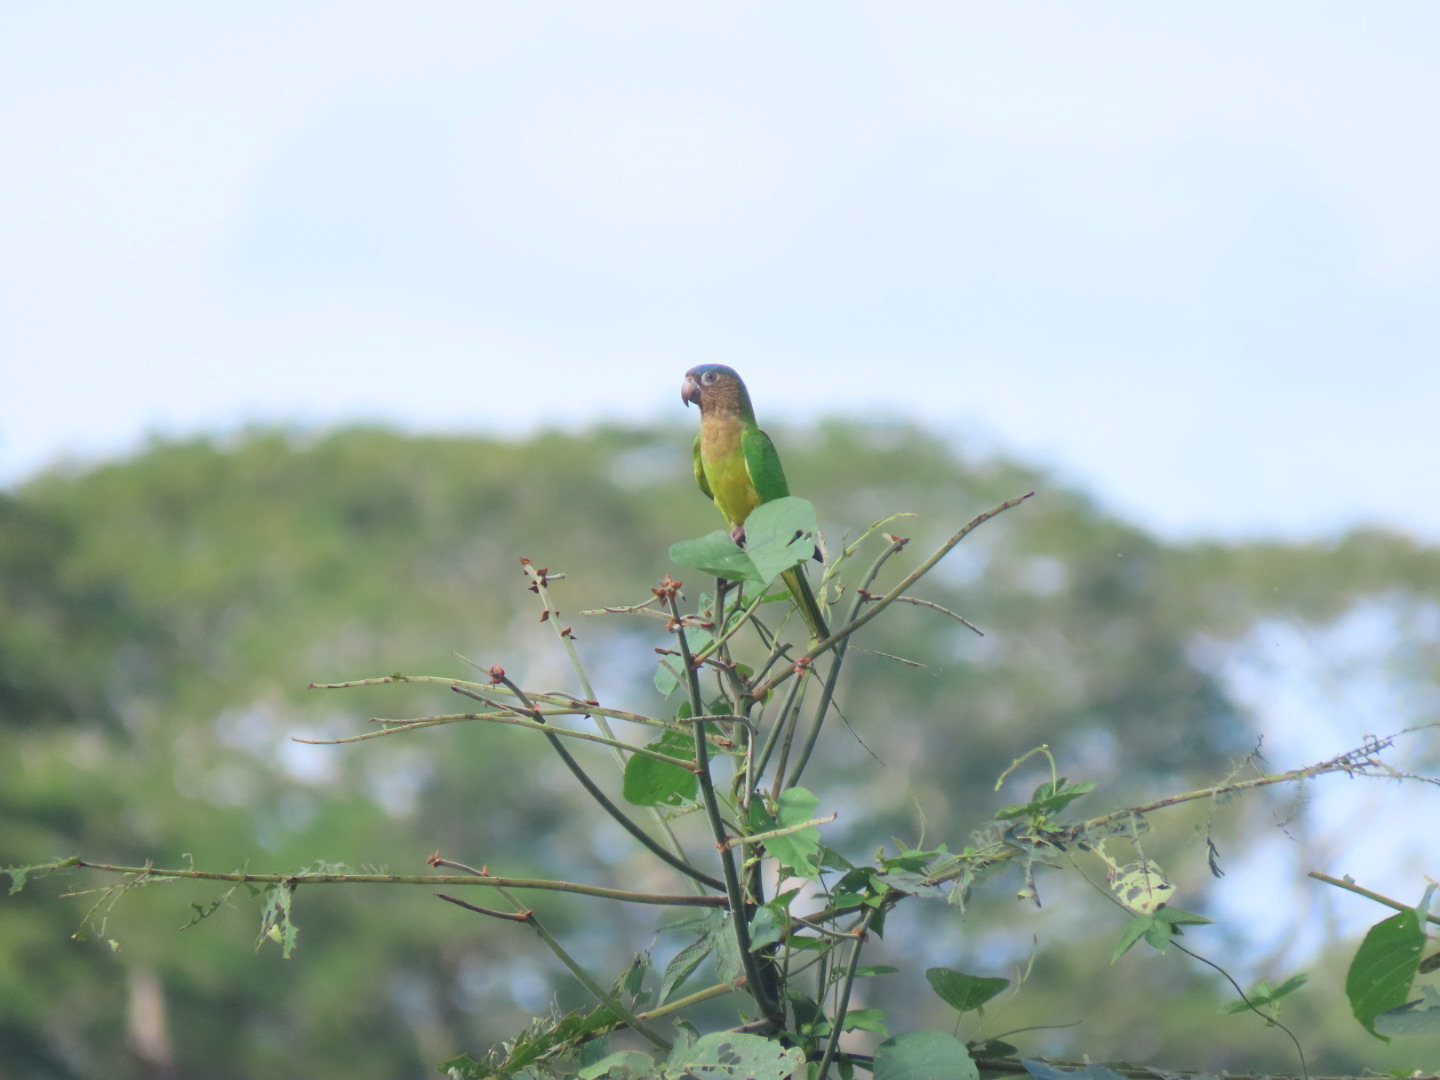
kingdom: Animalia
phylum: Chordata
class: Aves
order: Psittaciformes
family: Psittacidae
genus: Aratinga
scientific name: Aratinga pertinax
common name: Brown-throated parakeet
